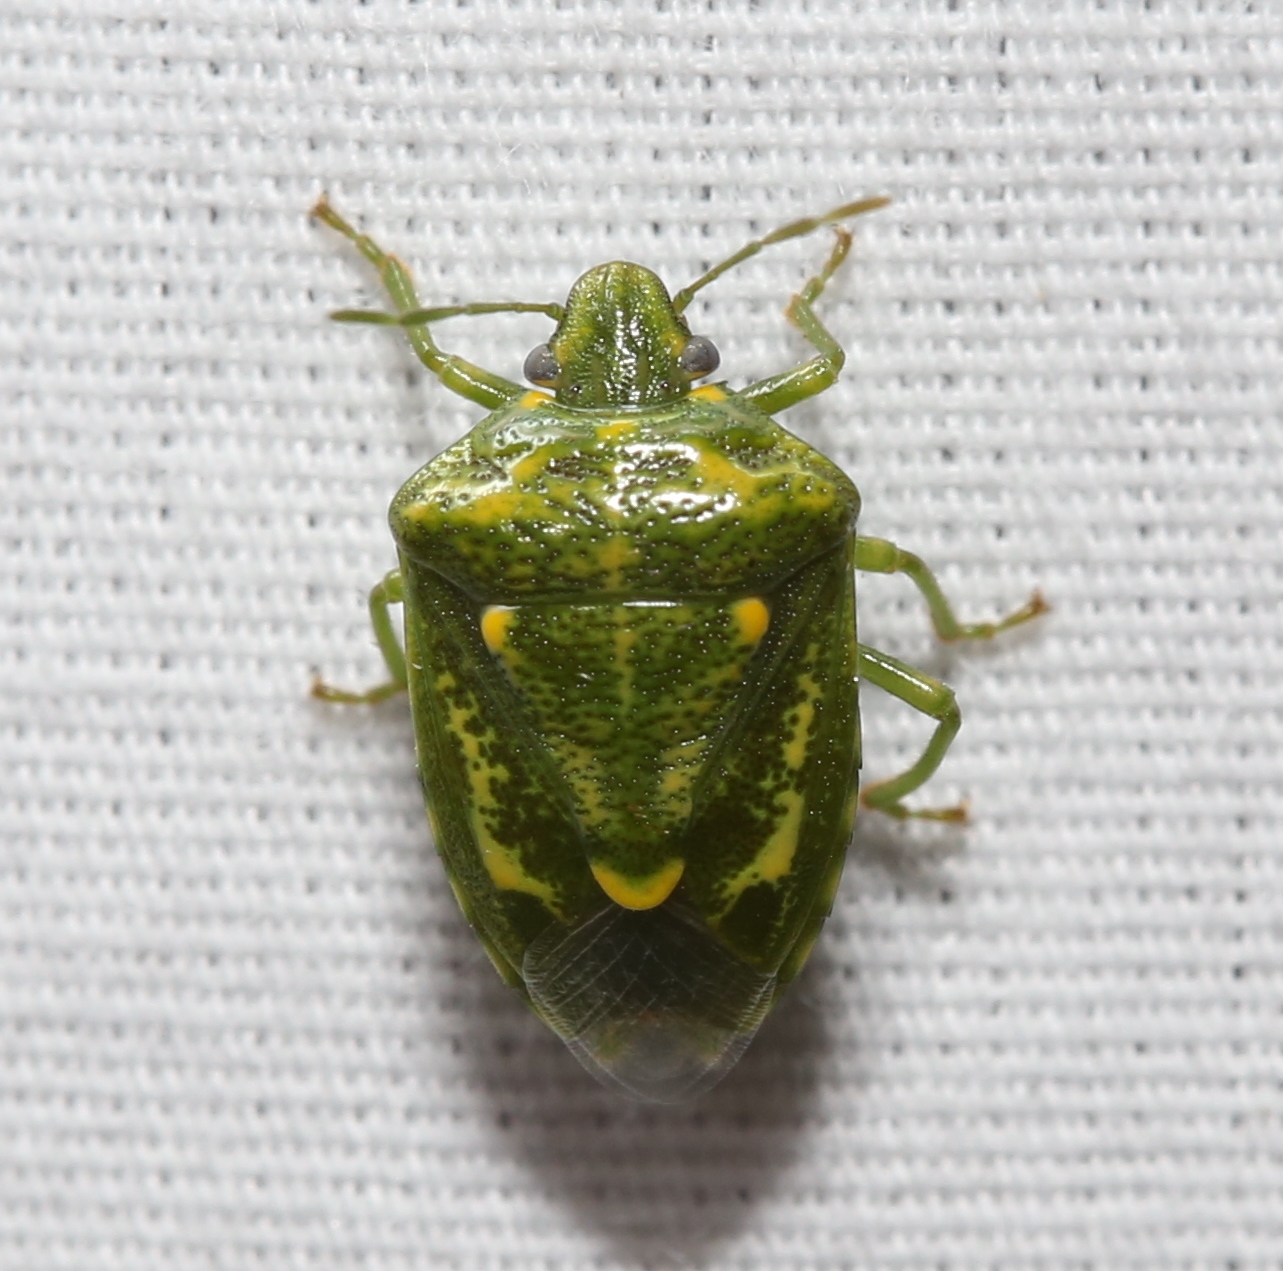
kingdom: Animalia
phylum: Arthropoda
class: Insecta
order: Hemiptera
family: Pentatomidae
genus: Banasa
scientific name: Banasa euchlora
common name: Cedar berry bug
